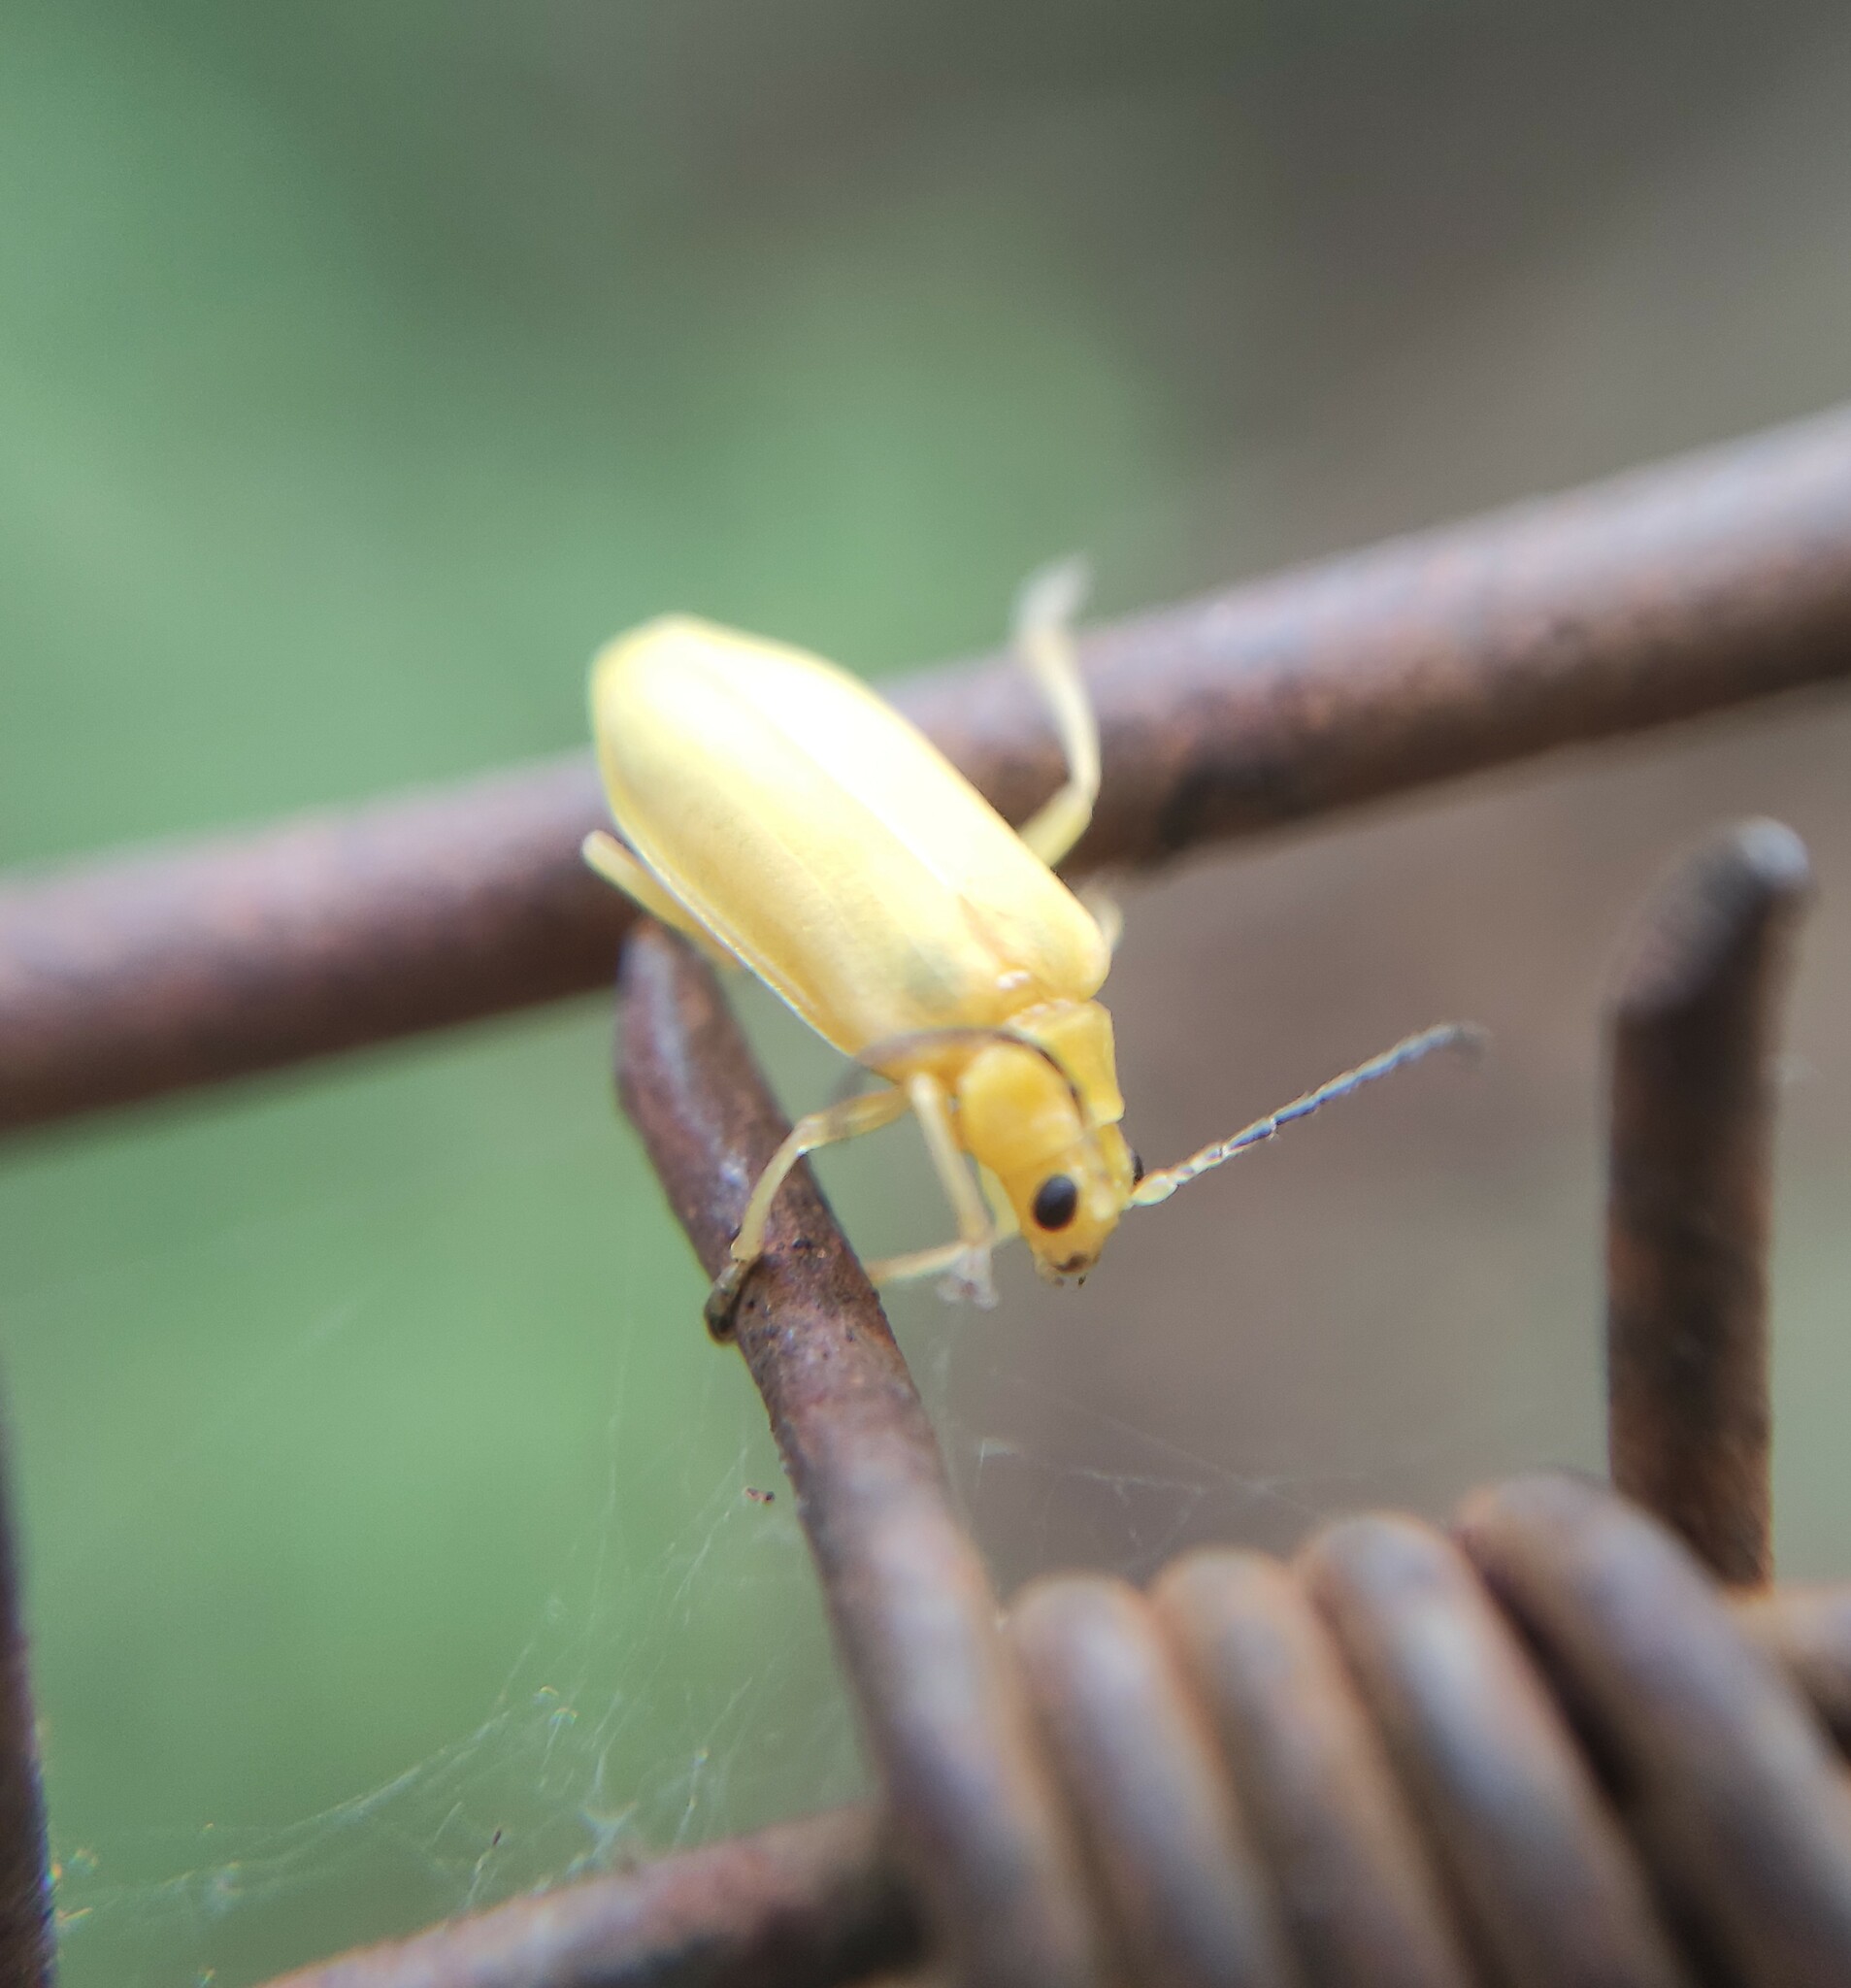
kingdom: Animalia
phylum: Arthropoda
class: Insecta
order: Coleoptera
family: Chrysomelidae
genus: Neolochmaea
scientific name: Neolochmaea
